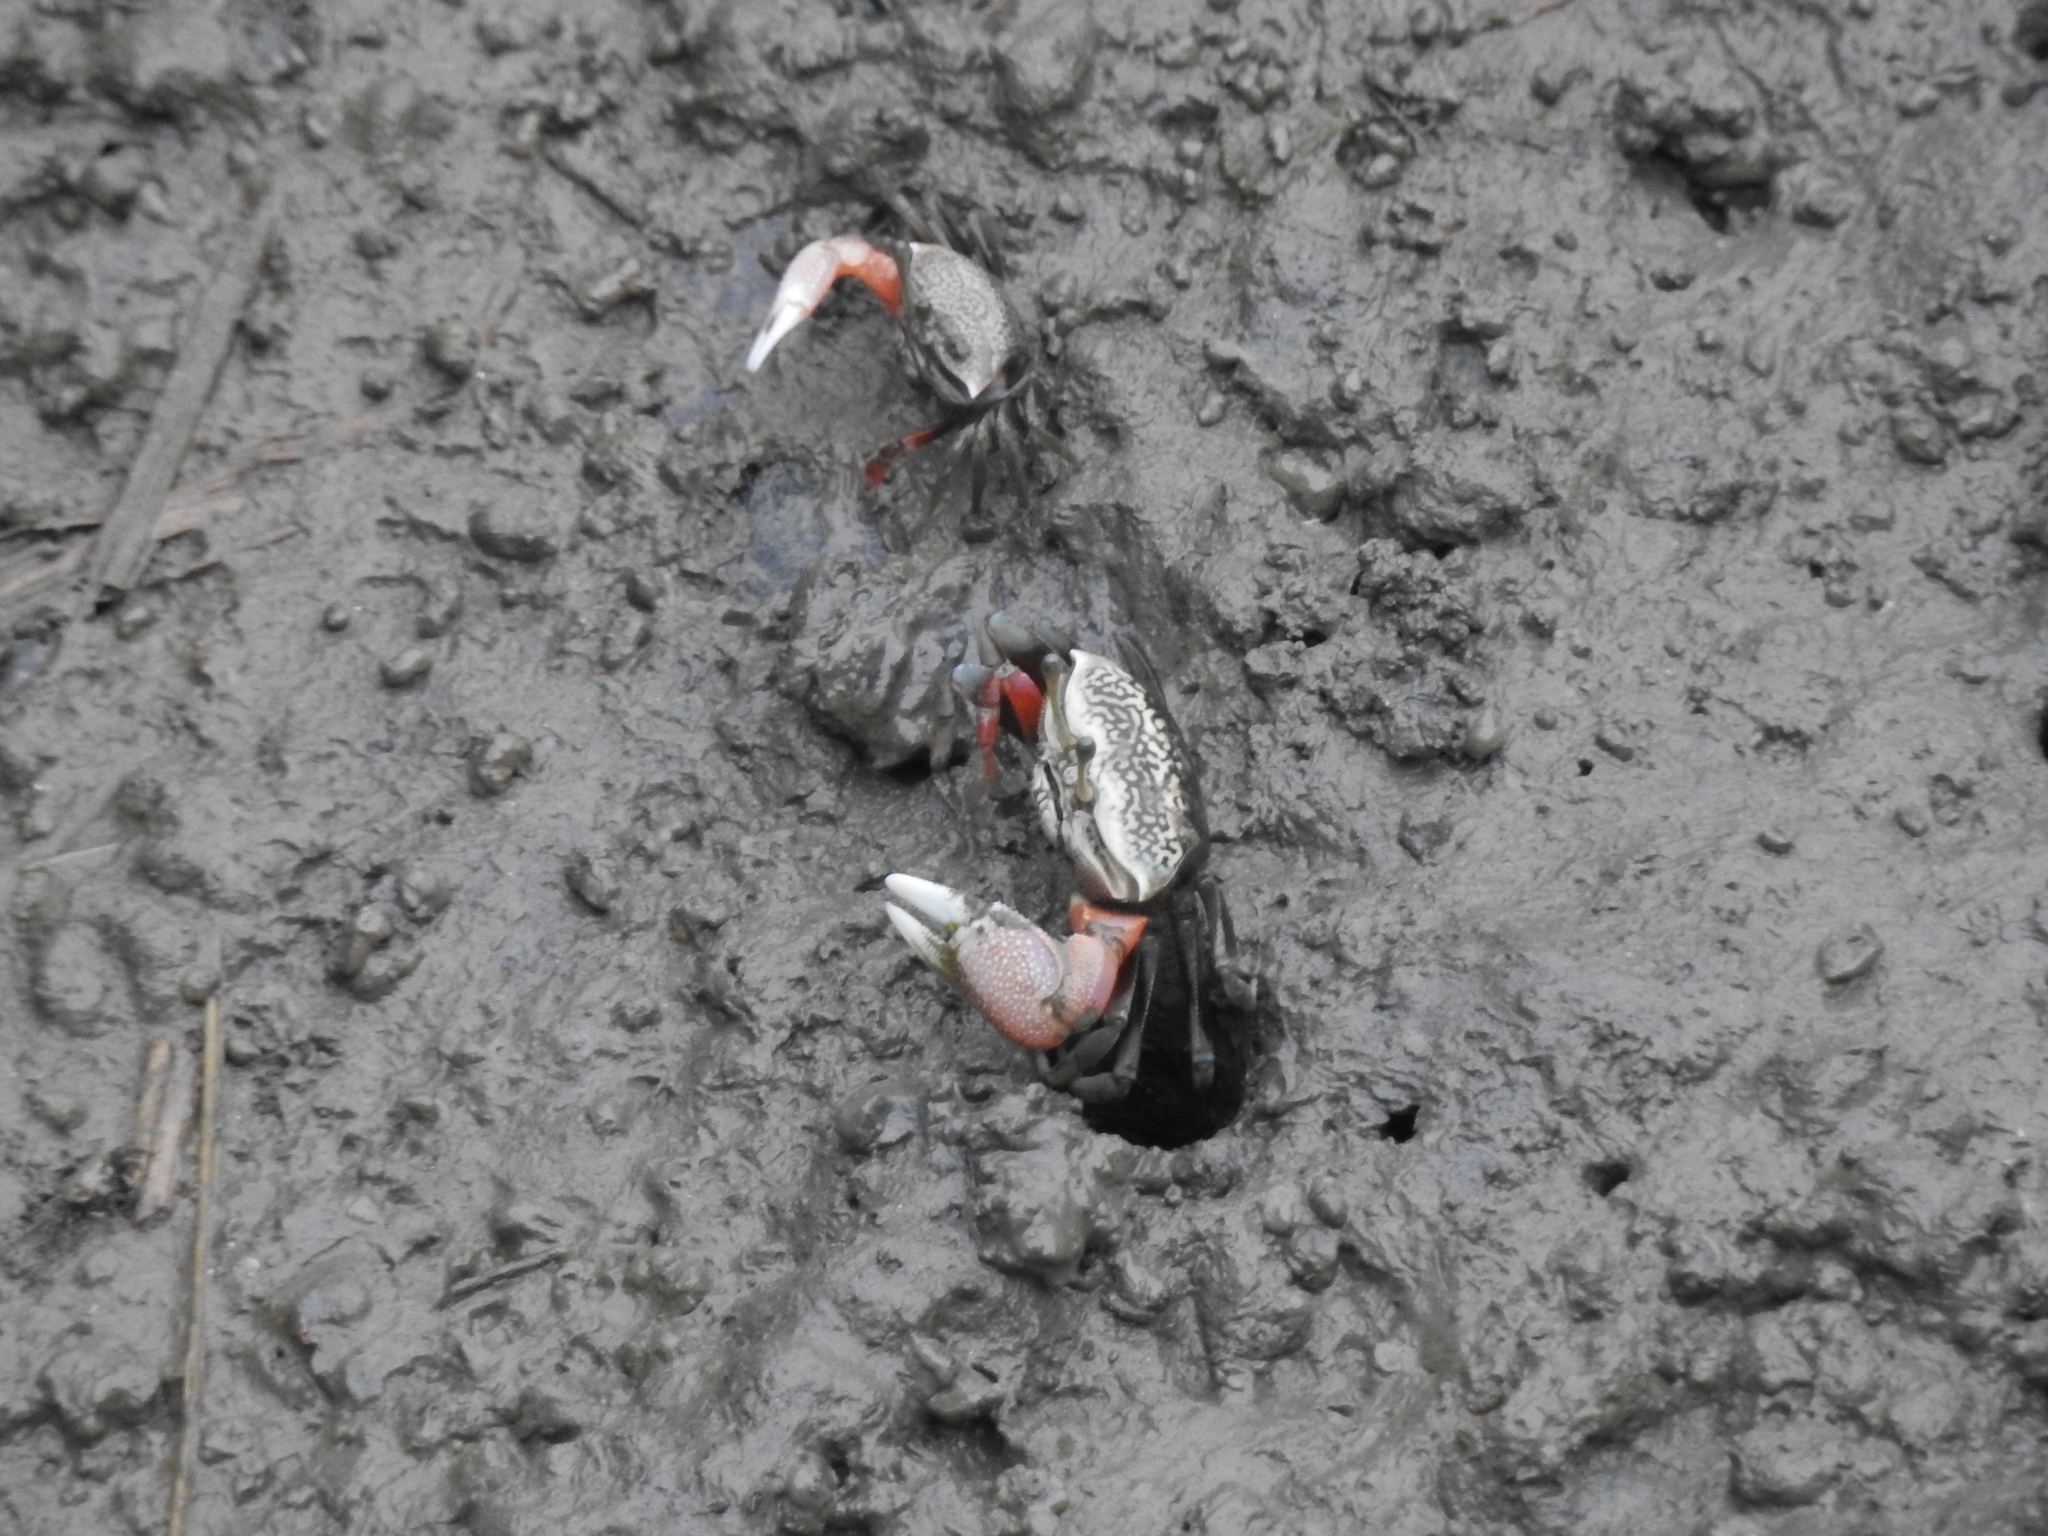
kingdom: Animalia
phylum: Arthropoda
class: Malacostraca
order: Decapoda
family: Ocypodidae
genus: Tubuca
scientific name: Tubuca arcuata
